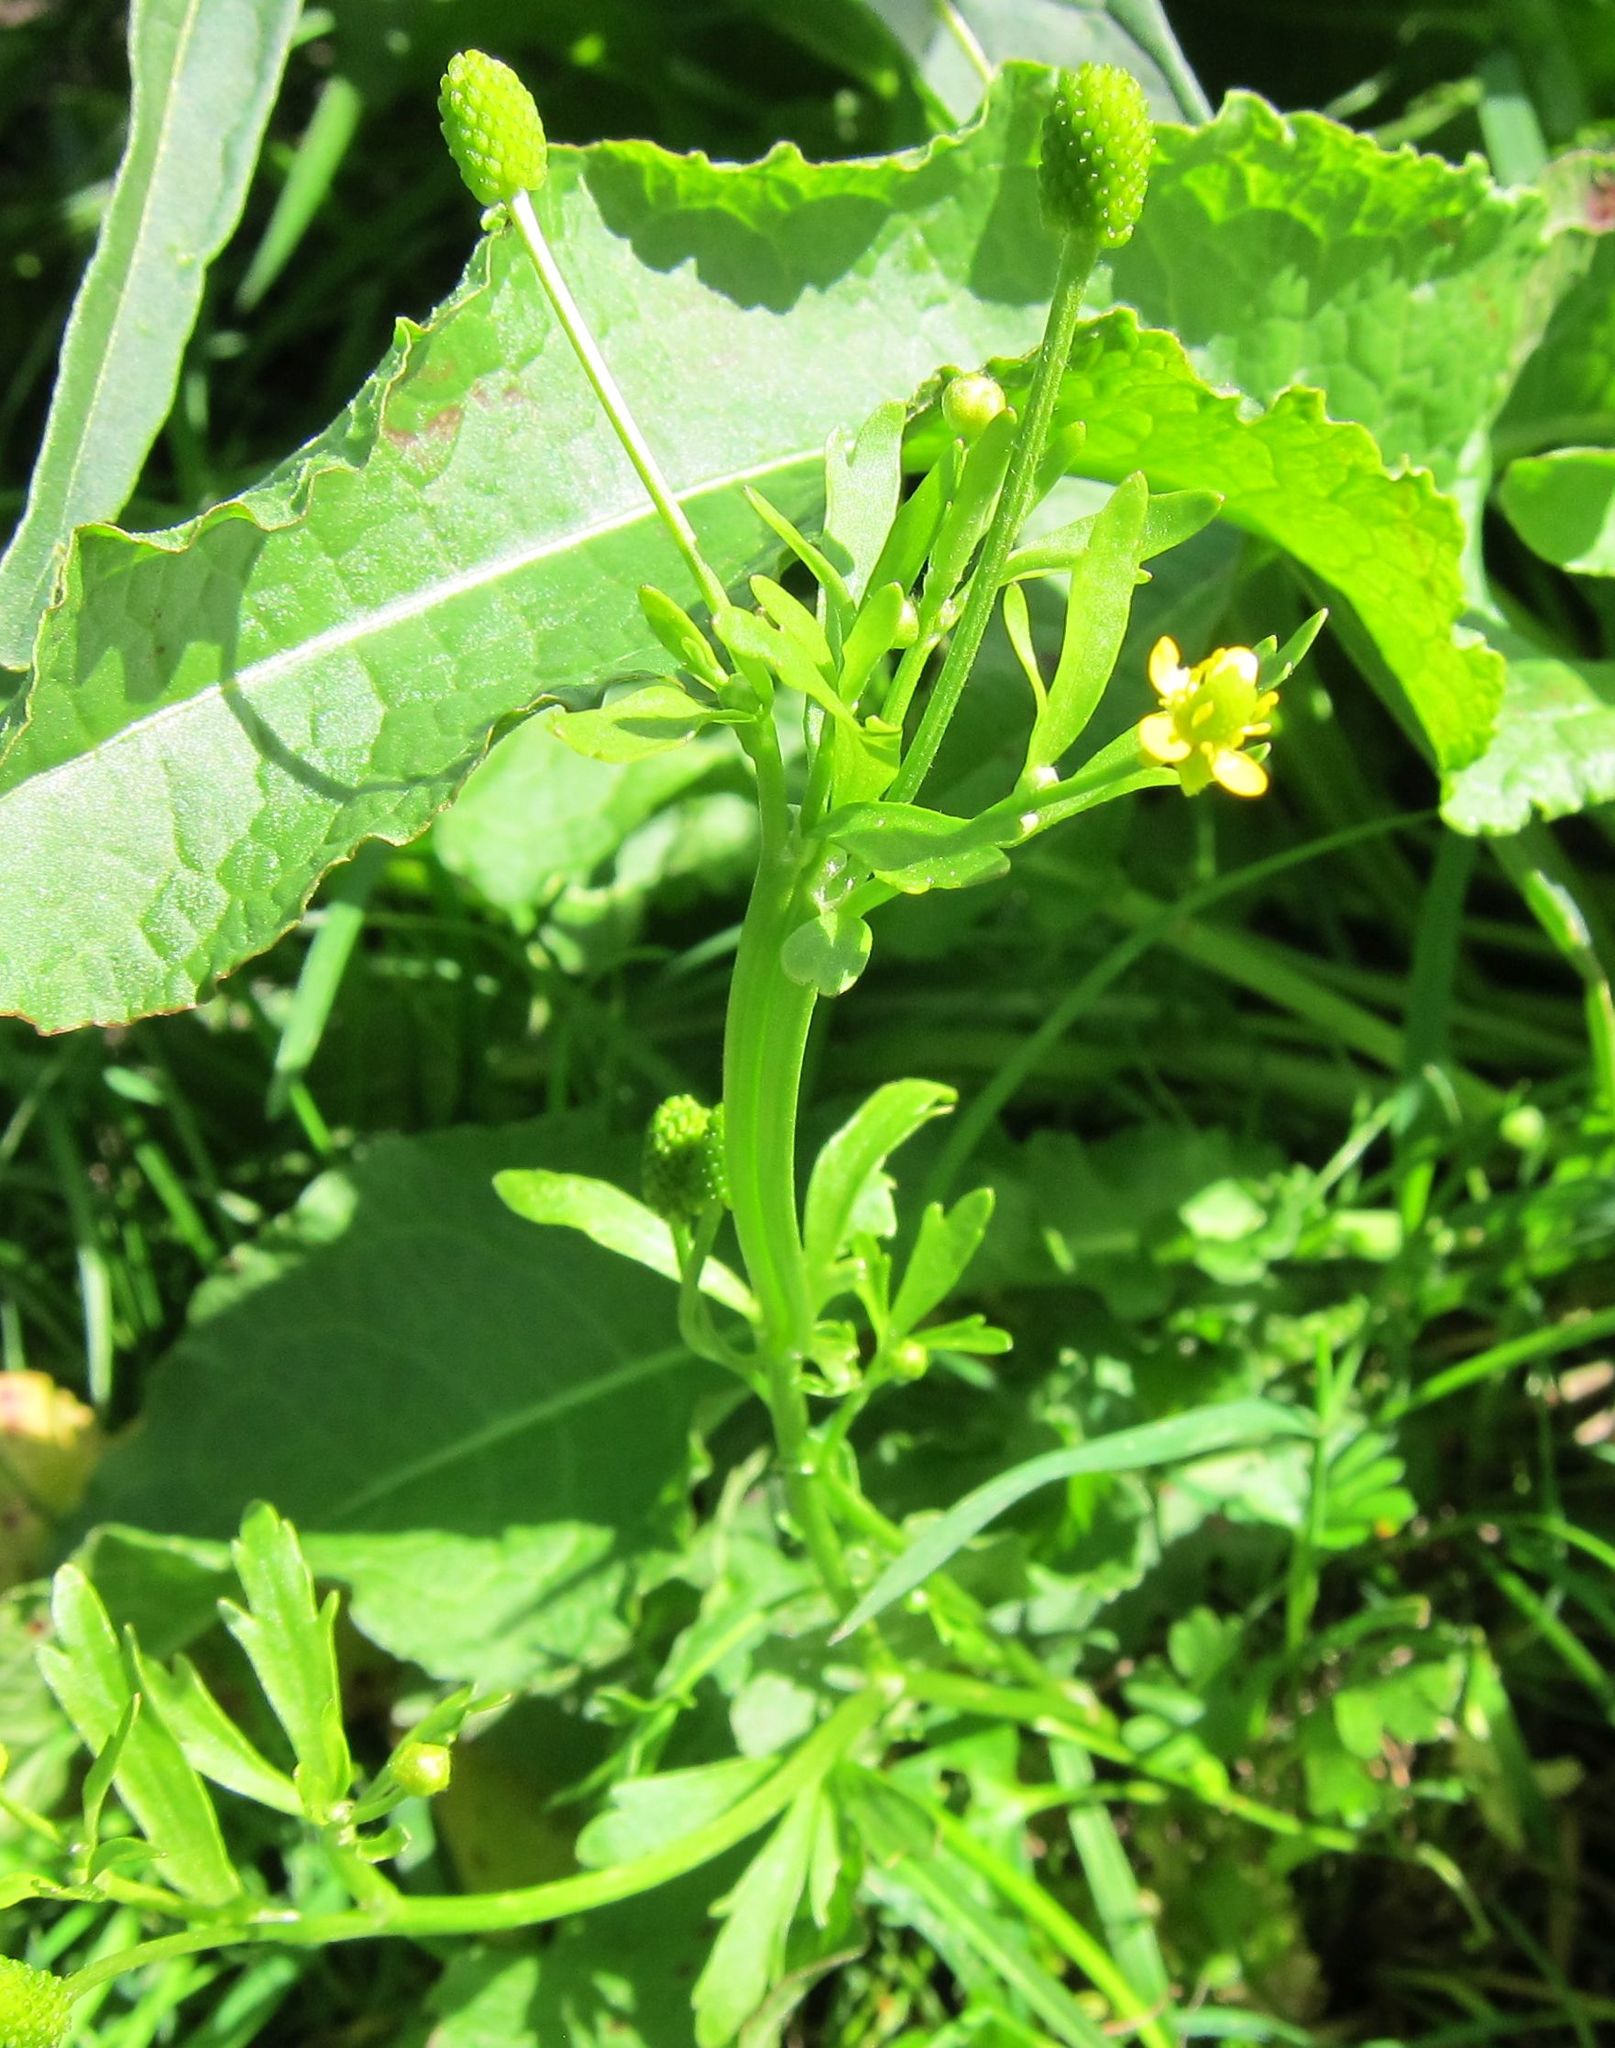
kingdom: Plantae
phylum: Tracheophyta
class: Magnoliopsida
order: Ranunculales
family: Ranunculaceae
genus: Ranunculus
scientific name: Ranunculus sceleratus
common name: Celery-leaved buttercup
